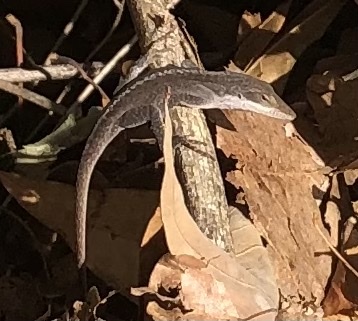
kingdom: Animalia
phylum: Chordata
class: Squamata
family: Dactyloidae
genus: Anolis
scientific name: Anolis carolinensis
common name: Green anole
